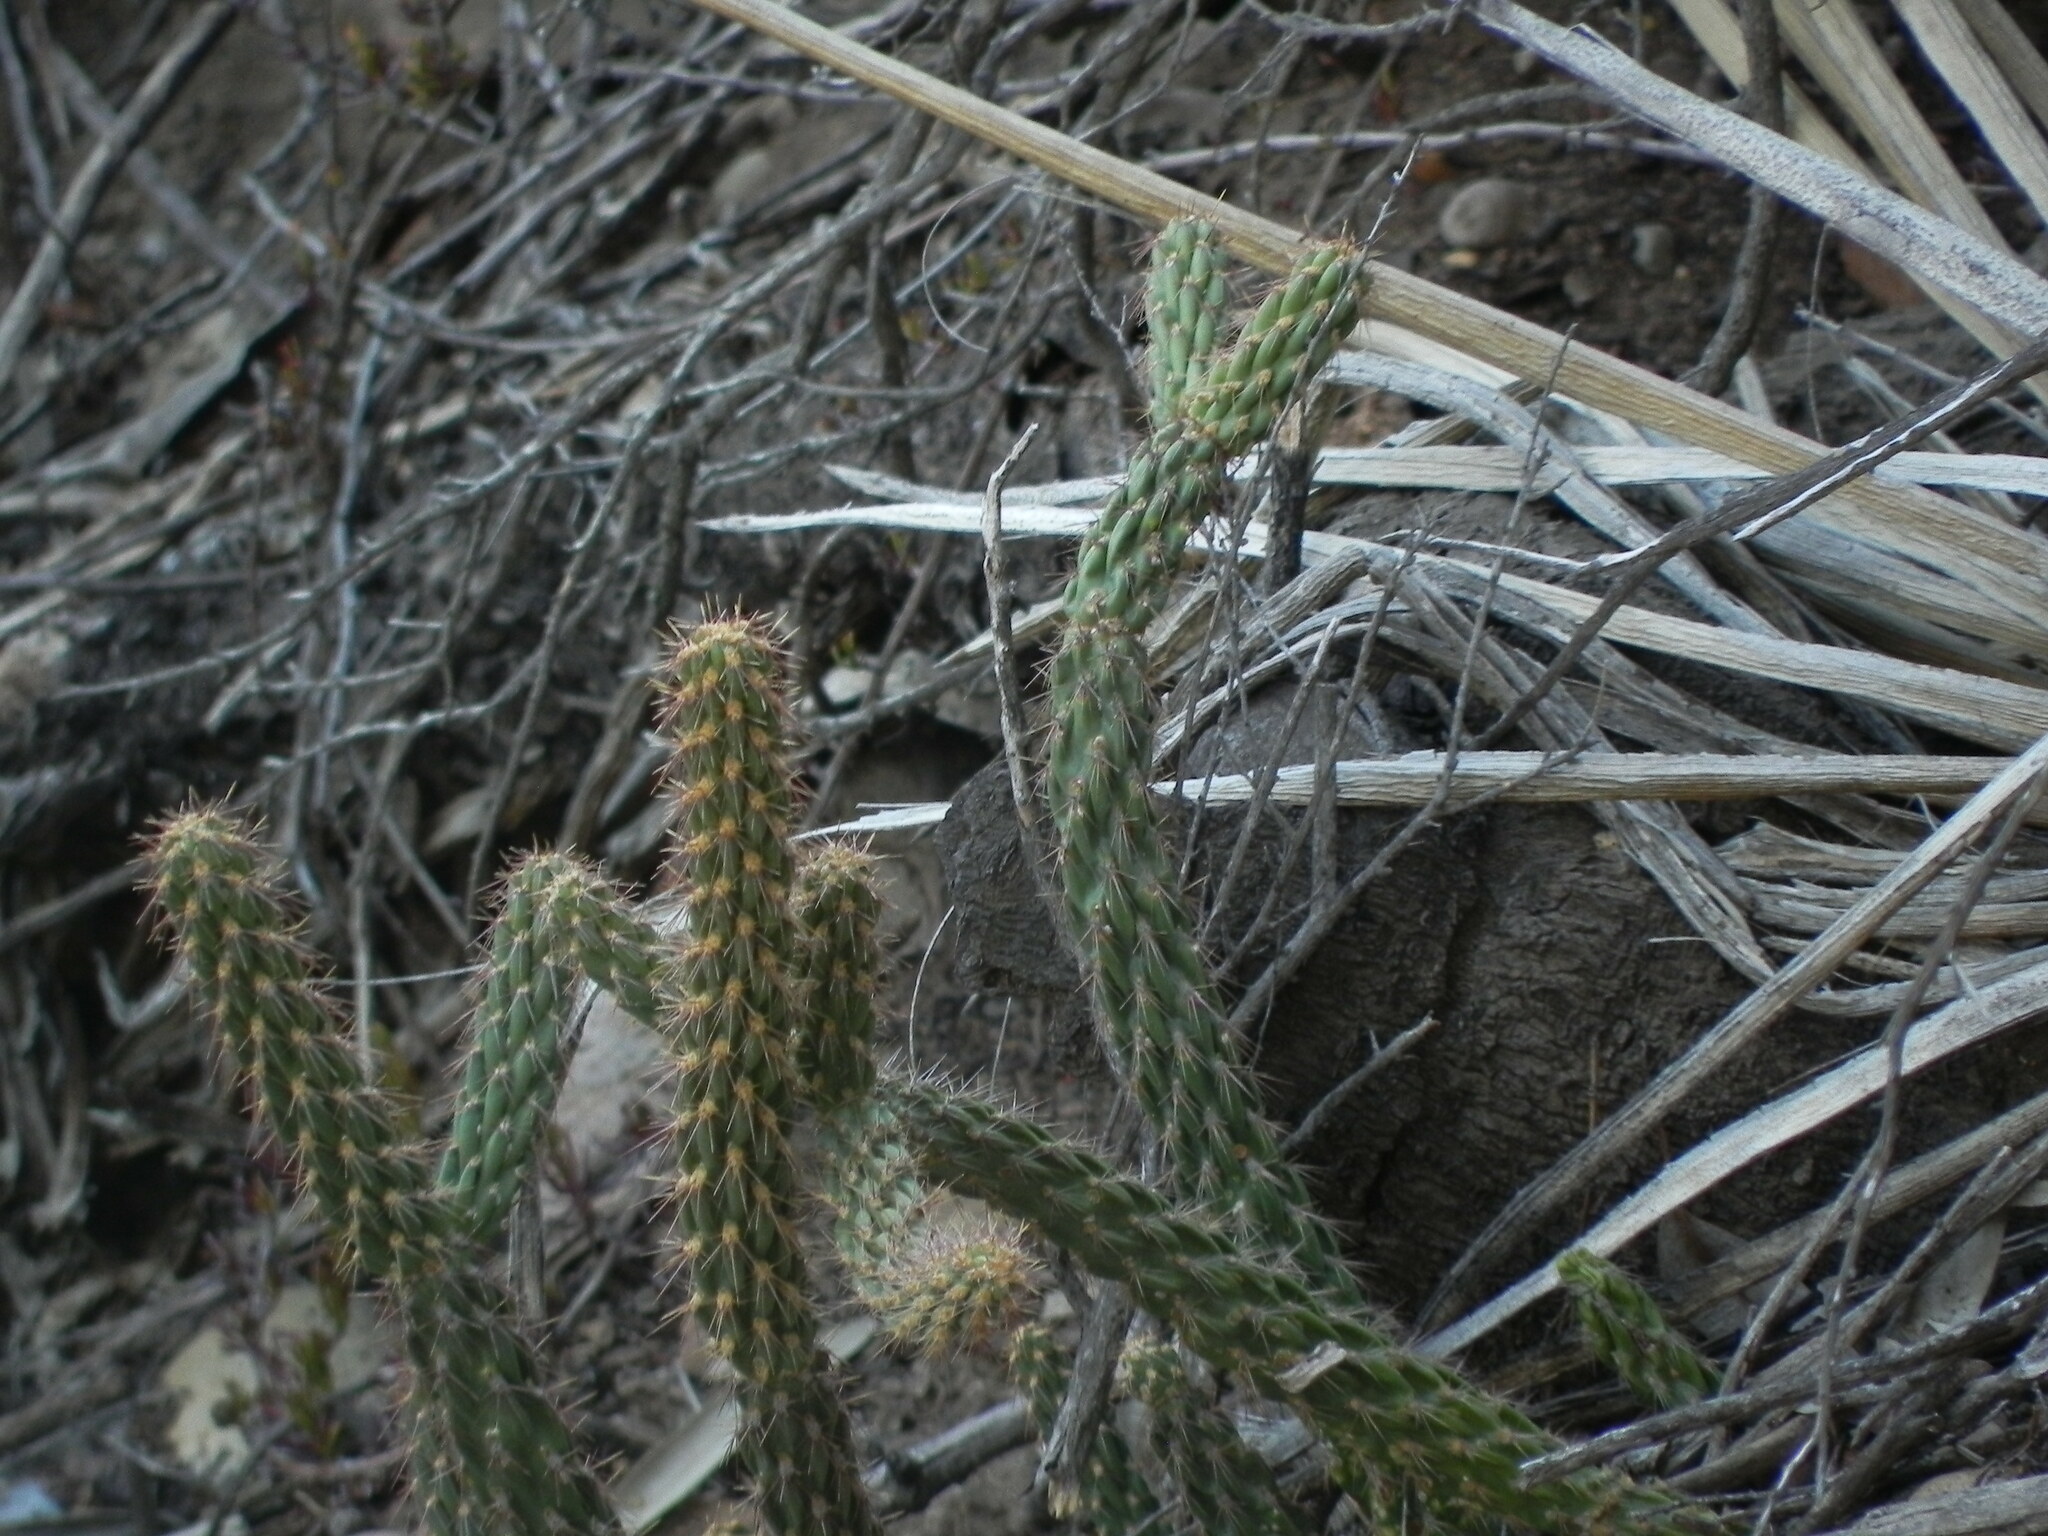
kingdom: Plantae
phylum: Tracheophyta
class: Magnoliopsida
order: Caryophyllales
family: Cactaceae
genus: Cylindropuntia
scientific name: Cylindropuntia californica
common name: Snake cholla
